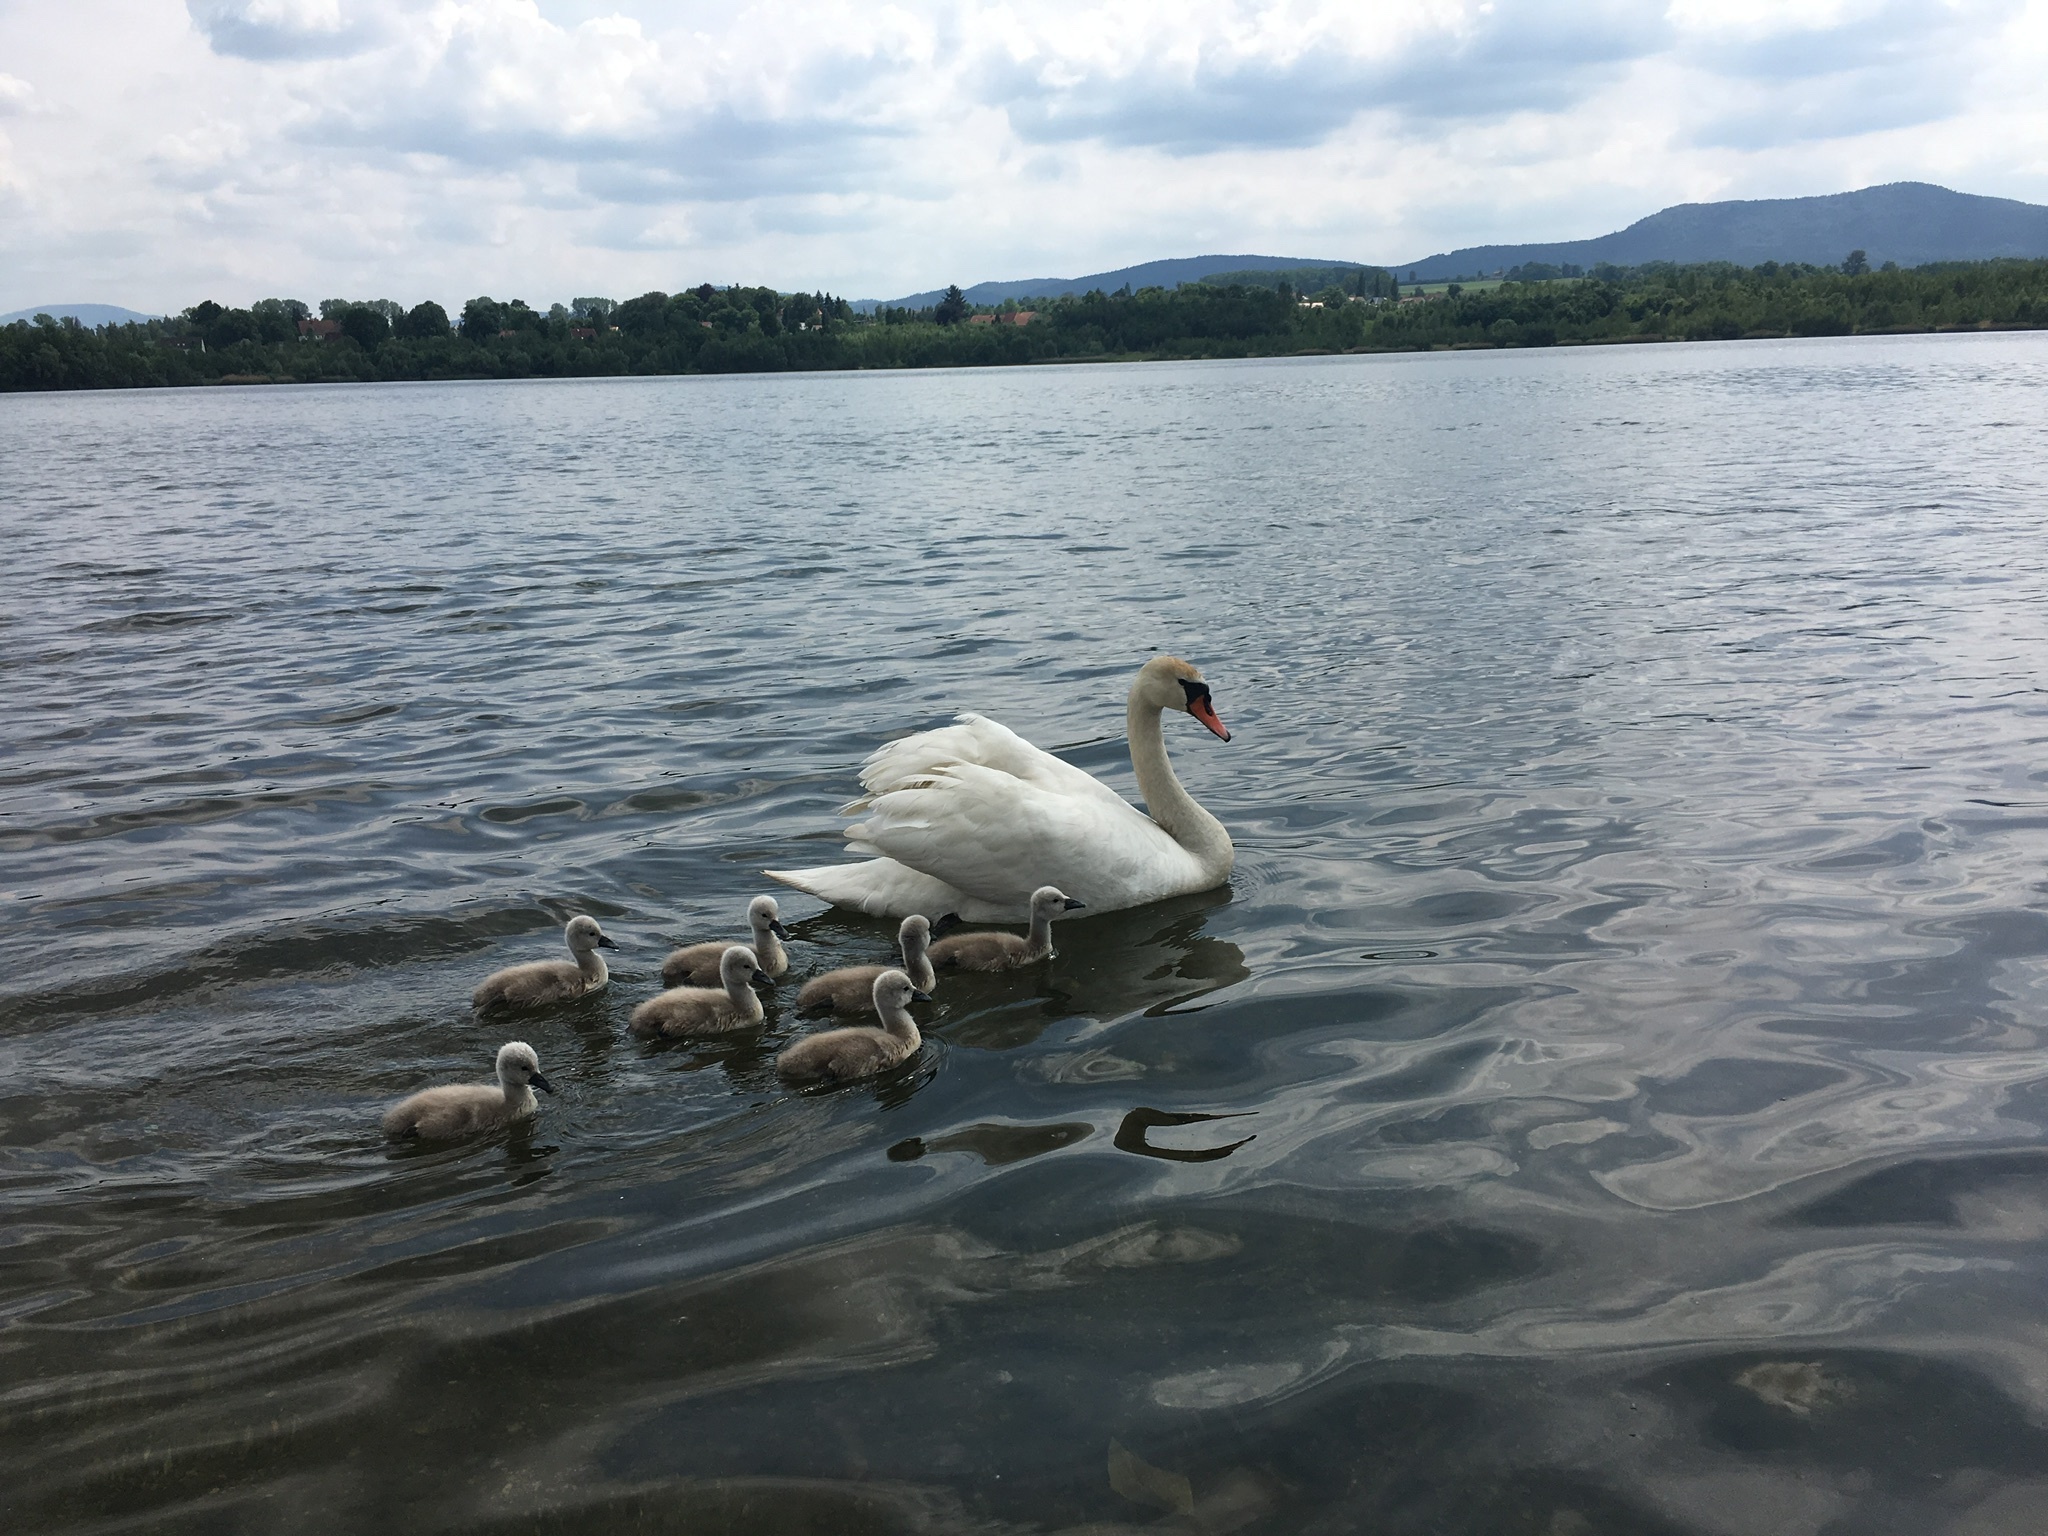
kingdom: Animalia
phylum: Chordata
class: Aves
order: Anseriformes
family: Anatidae
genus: Cygnus
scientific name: Cygnus olor
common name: Mute swan
